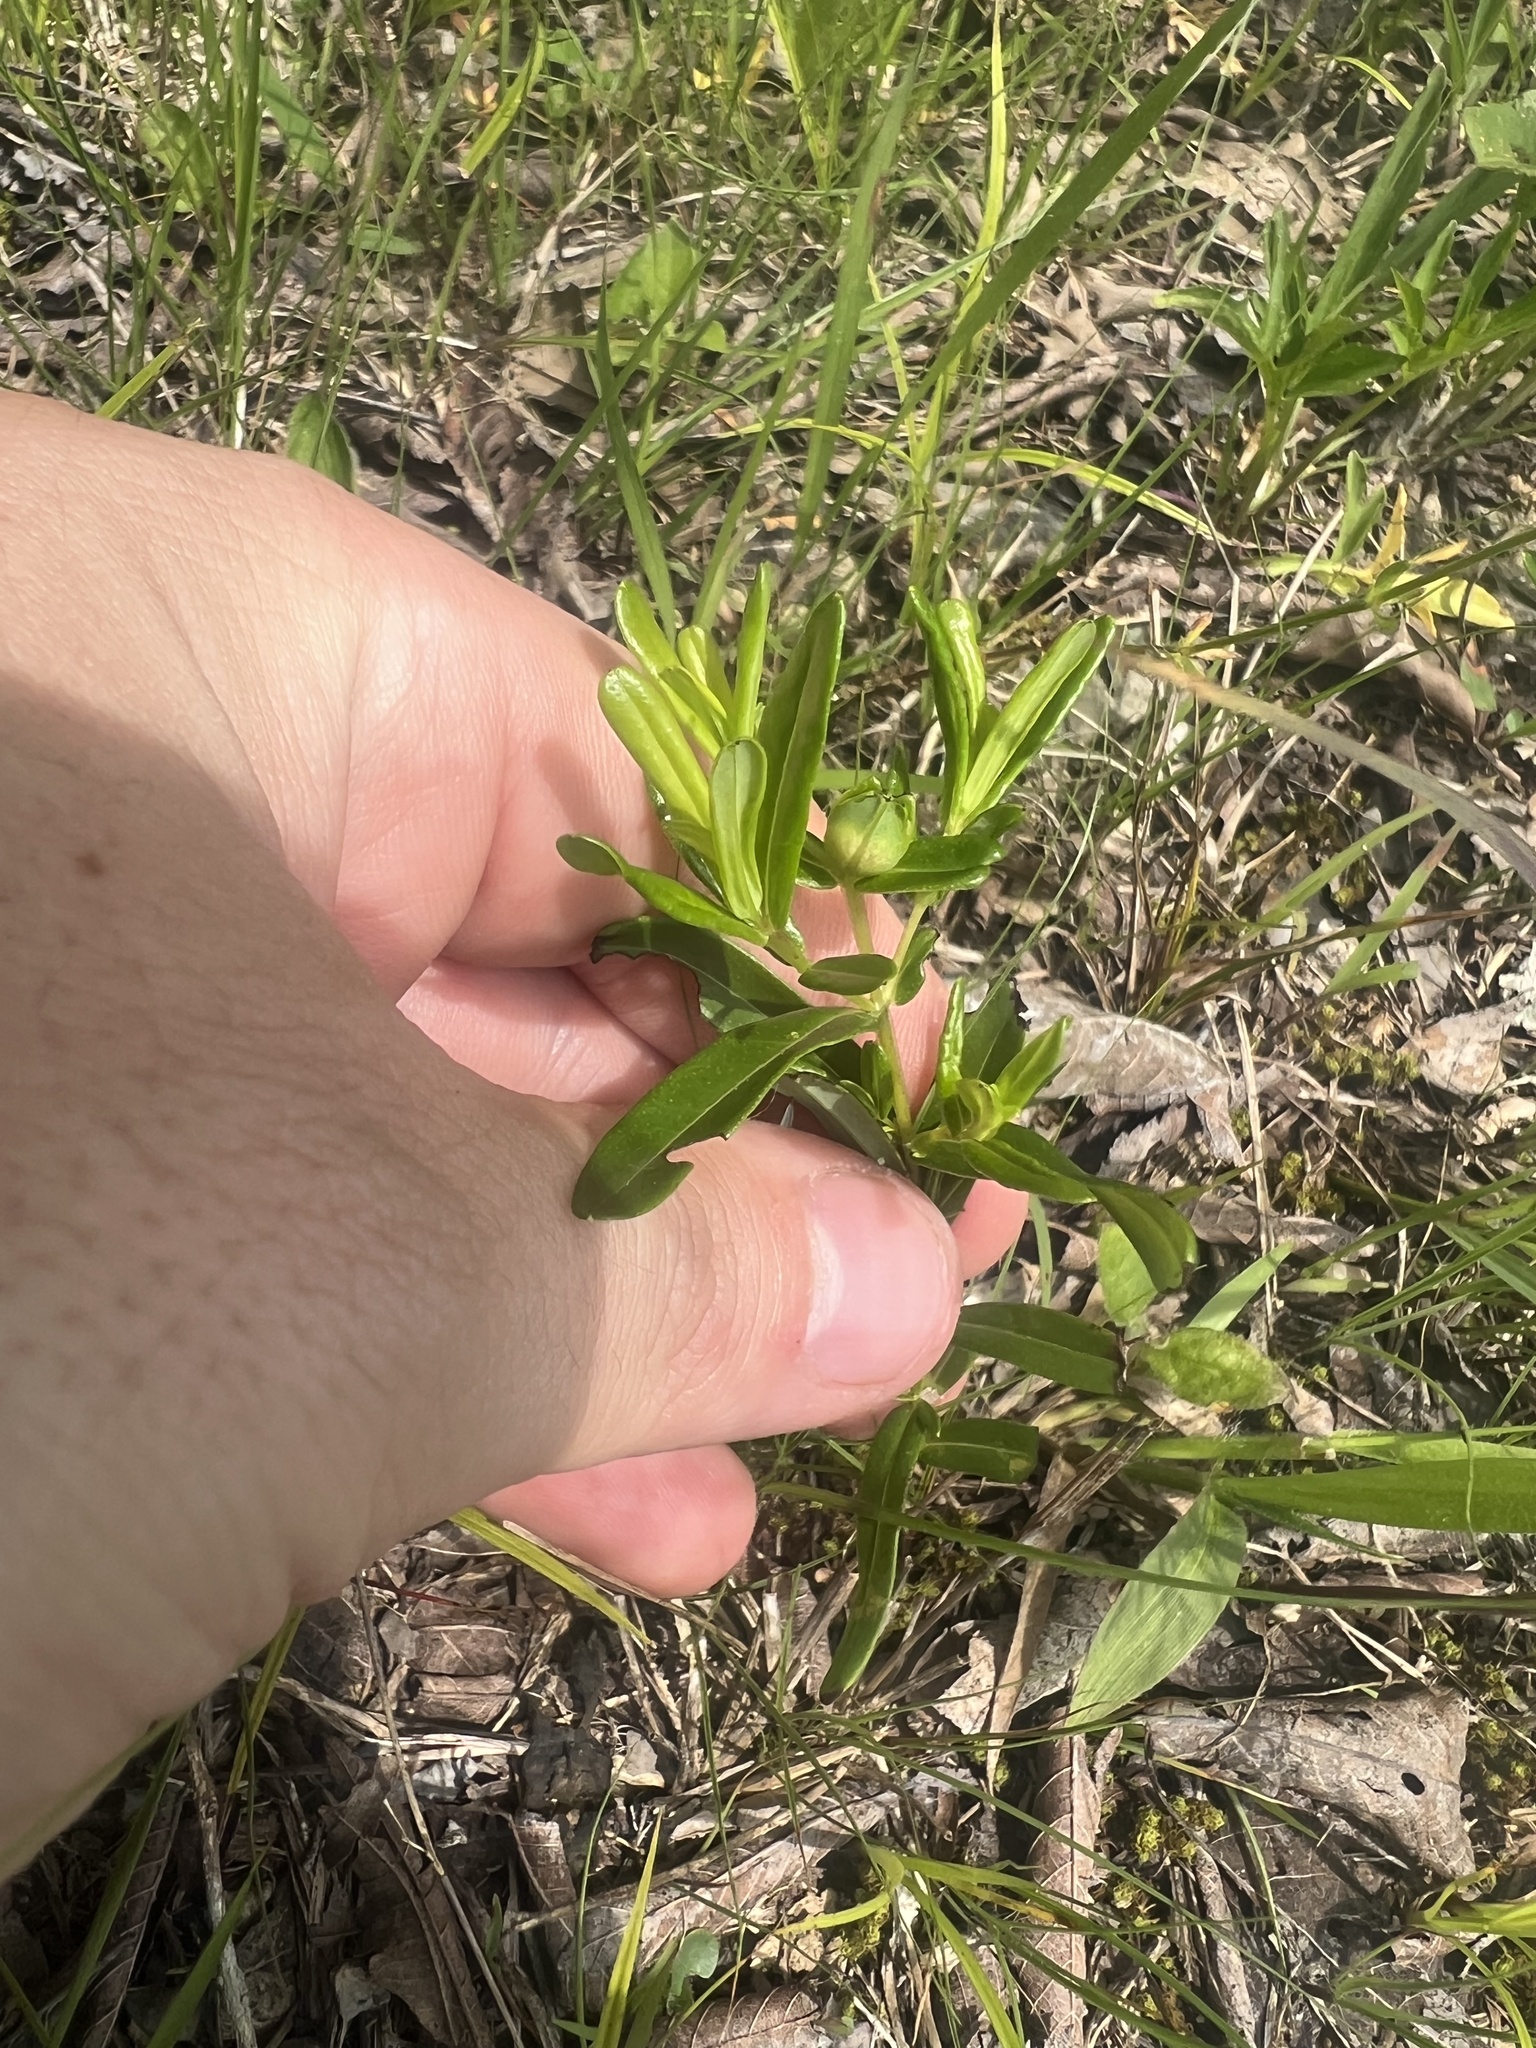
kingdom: Plantae
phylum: Tracheophyta
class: Magnoliopsida
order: Malpighiales
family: Hypericaceae
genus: Hypericum
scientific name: Hypericum sphaerocarpum
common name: Round-fruited st. john's-wort
